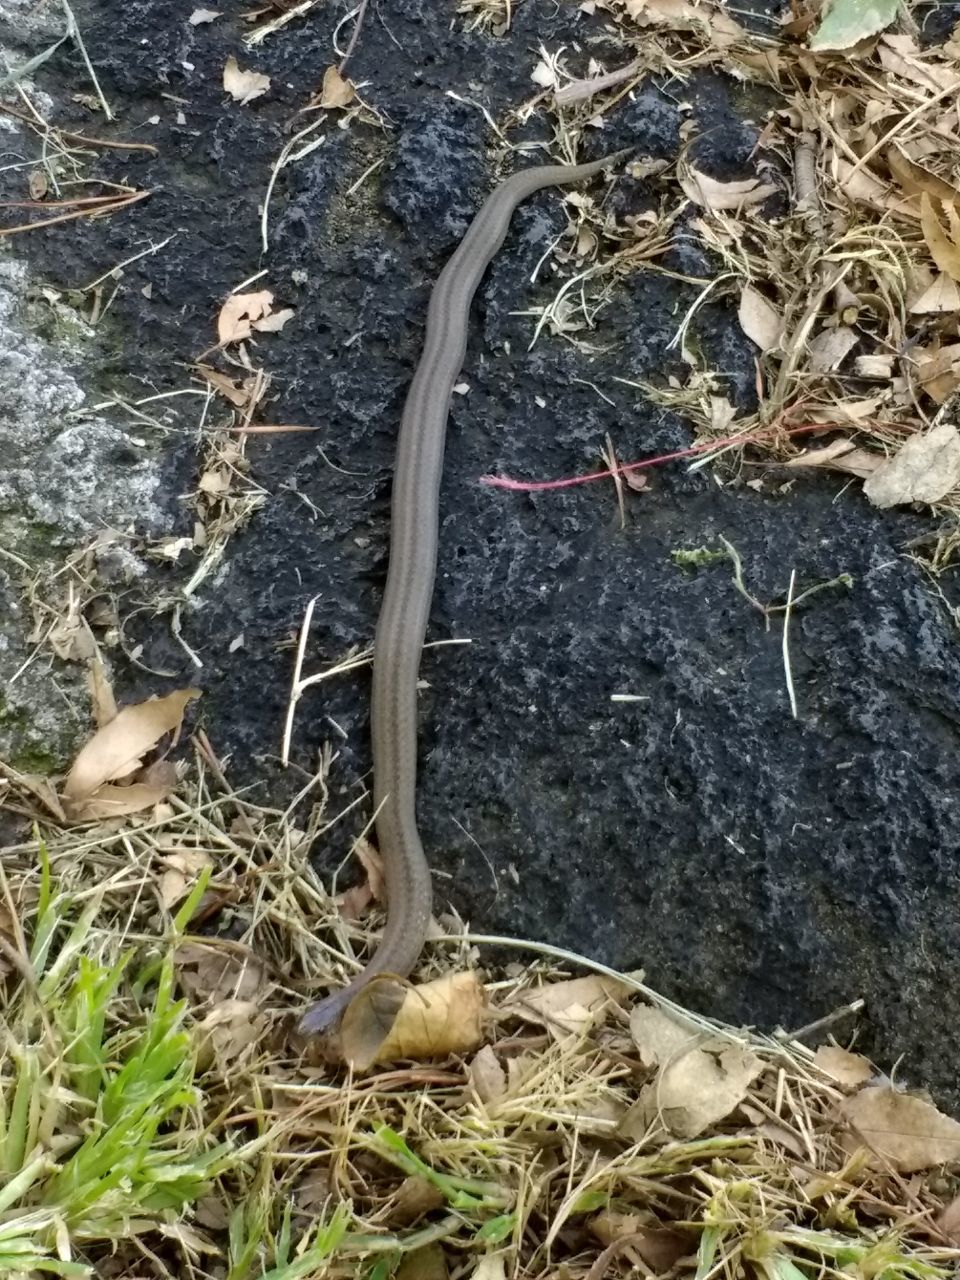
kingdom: Animalia
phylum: Chordata
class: Squamata
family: Colubridae
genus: Conopsis
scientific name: Conopsis lineata
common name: Lined tolucan earthsnake
